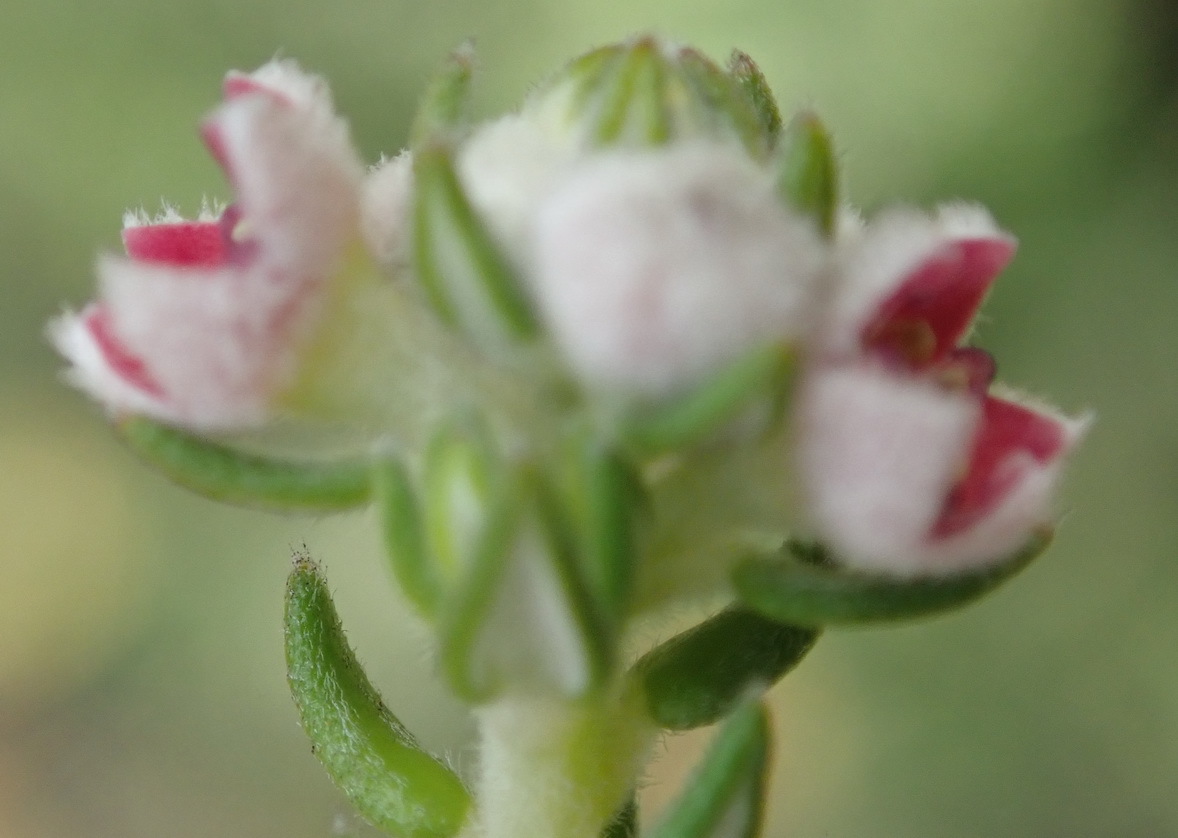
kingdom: Plantae
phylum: Tracheophyta
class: Magnoliopsida
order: Rosales
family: Rhamnaceae
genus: Phylica
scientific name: Phylica purpurea
